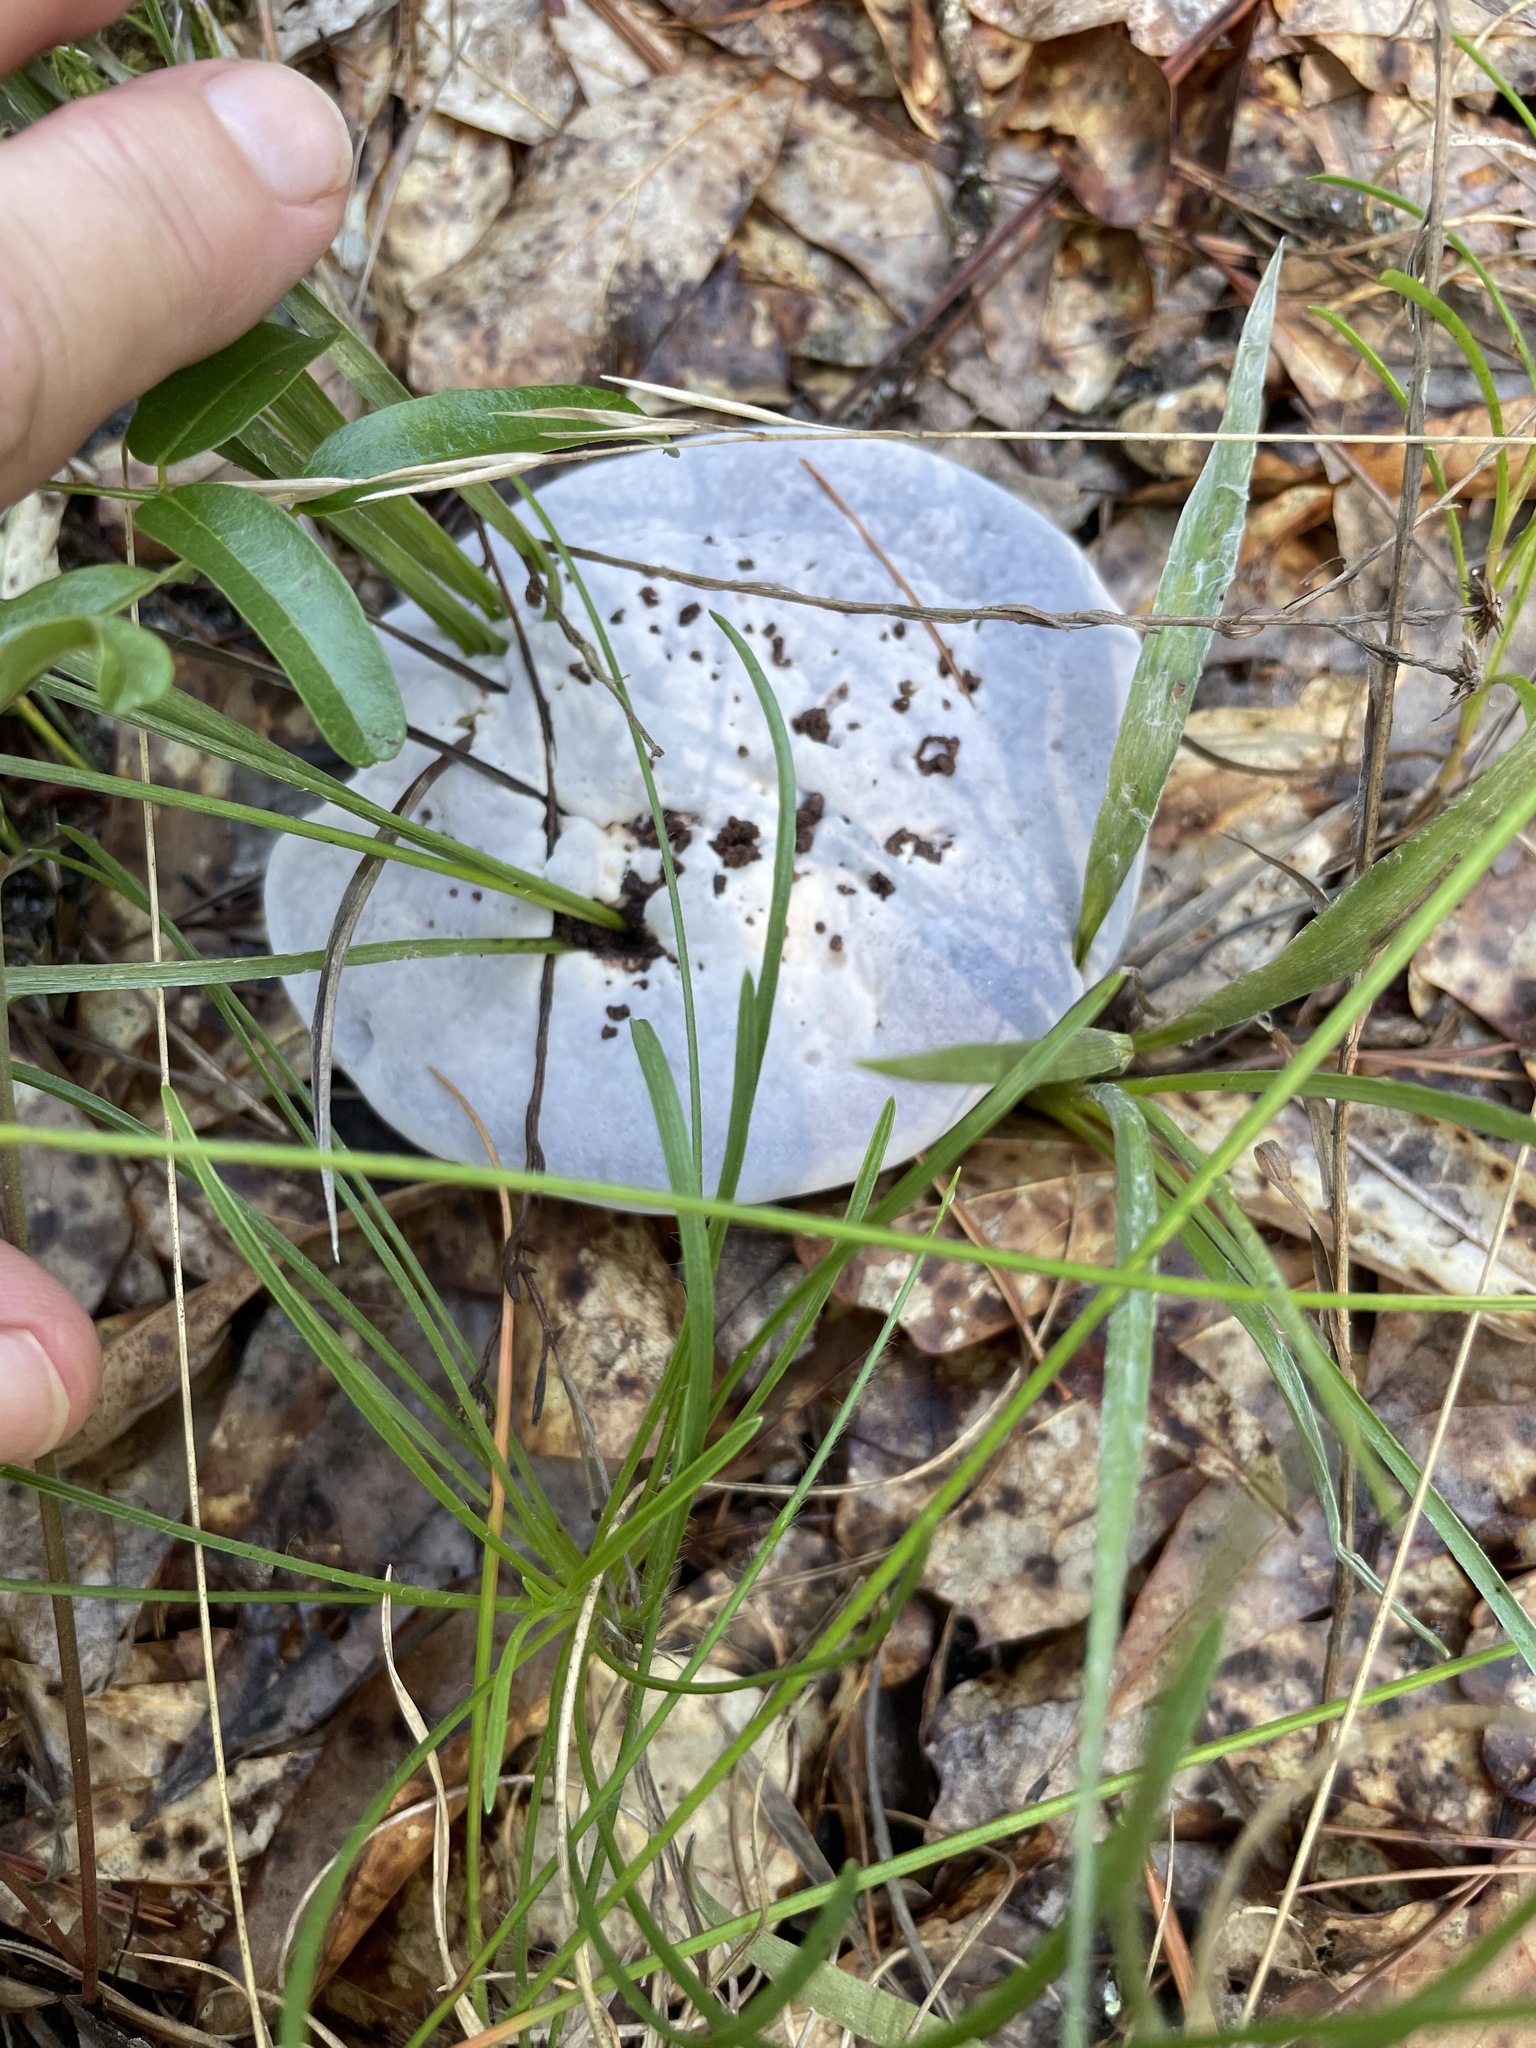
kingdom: Fungi
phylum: Basidiomycota
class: Agaricomycetes
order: Thelephorales
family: Bankeraceae
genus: Hydnellum
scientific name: Hydnellum caeruleum
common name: Blue corky spine fungus
